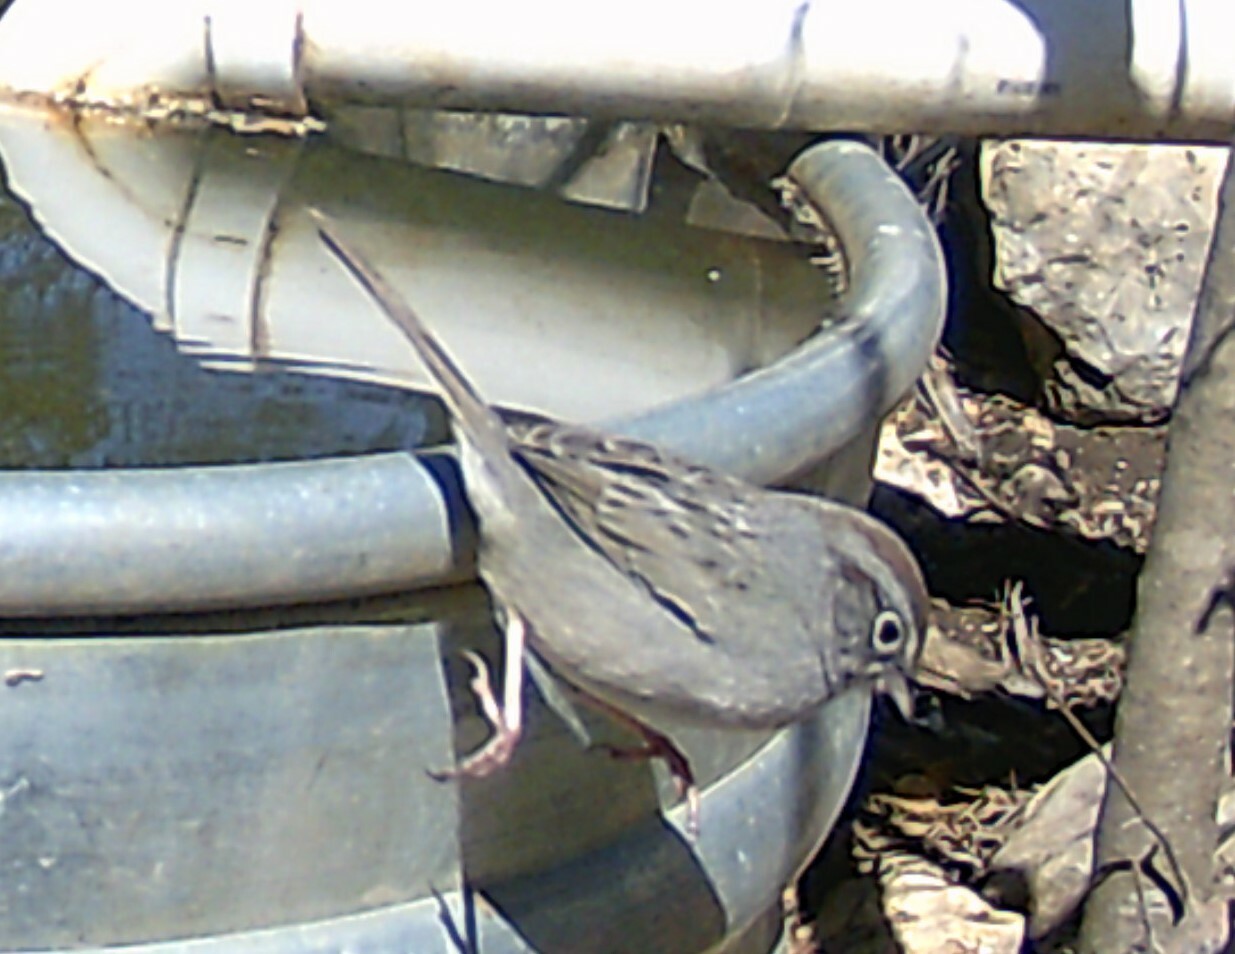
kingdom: Animalia
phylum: Chordata
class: Aves
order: Passeriformes
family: Passerellidae
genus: Aimophila
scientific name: Aimophila ruficeps
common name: Rufous-crowned sparrow
